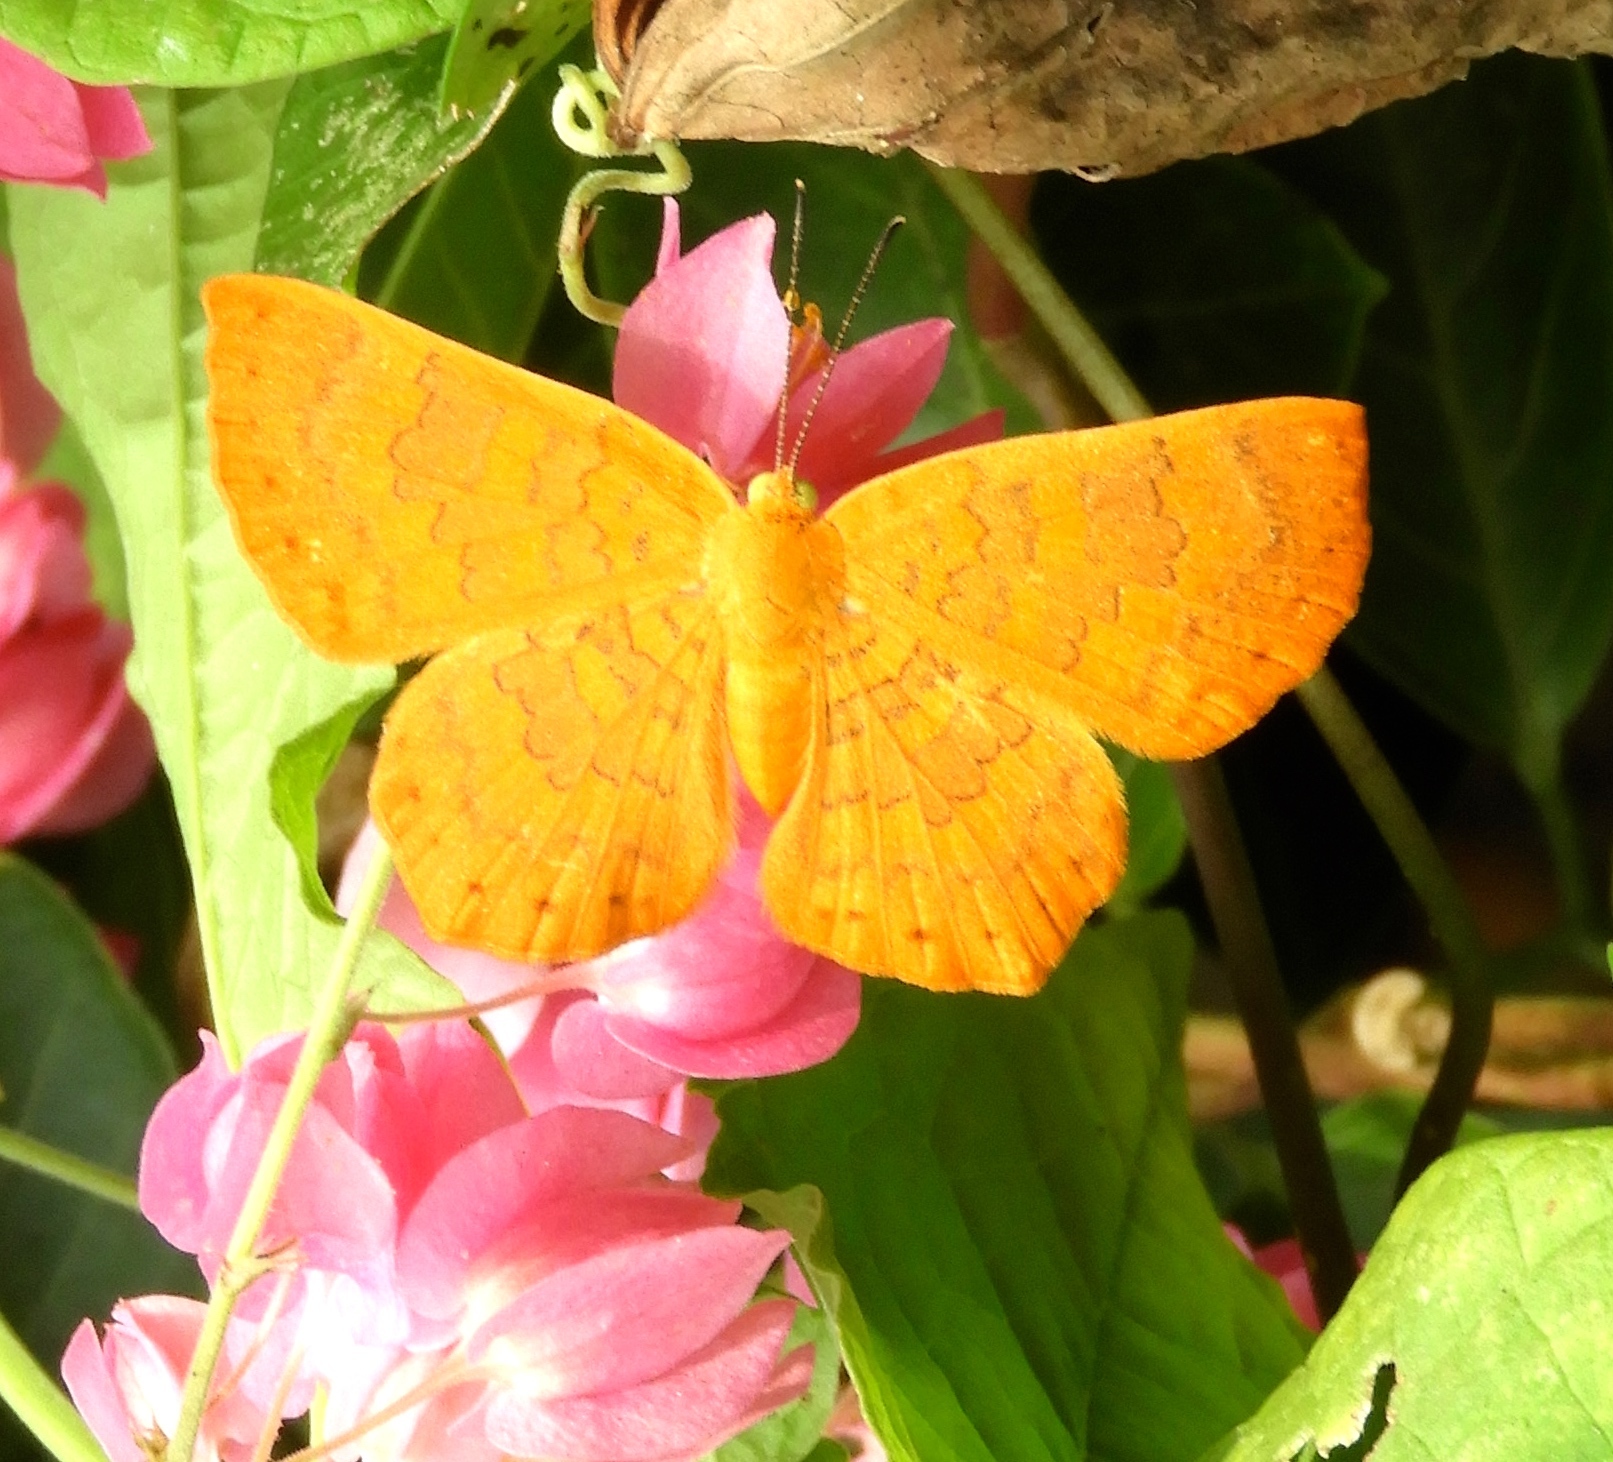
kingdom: Animalia
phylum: Arthropoda
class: Insecta
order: Lepidoptera
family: Lycaenidae
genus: Emesis
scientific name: Emesis
